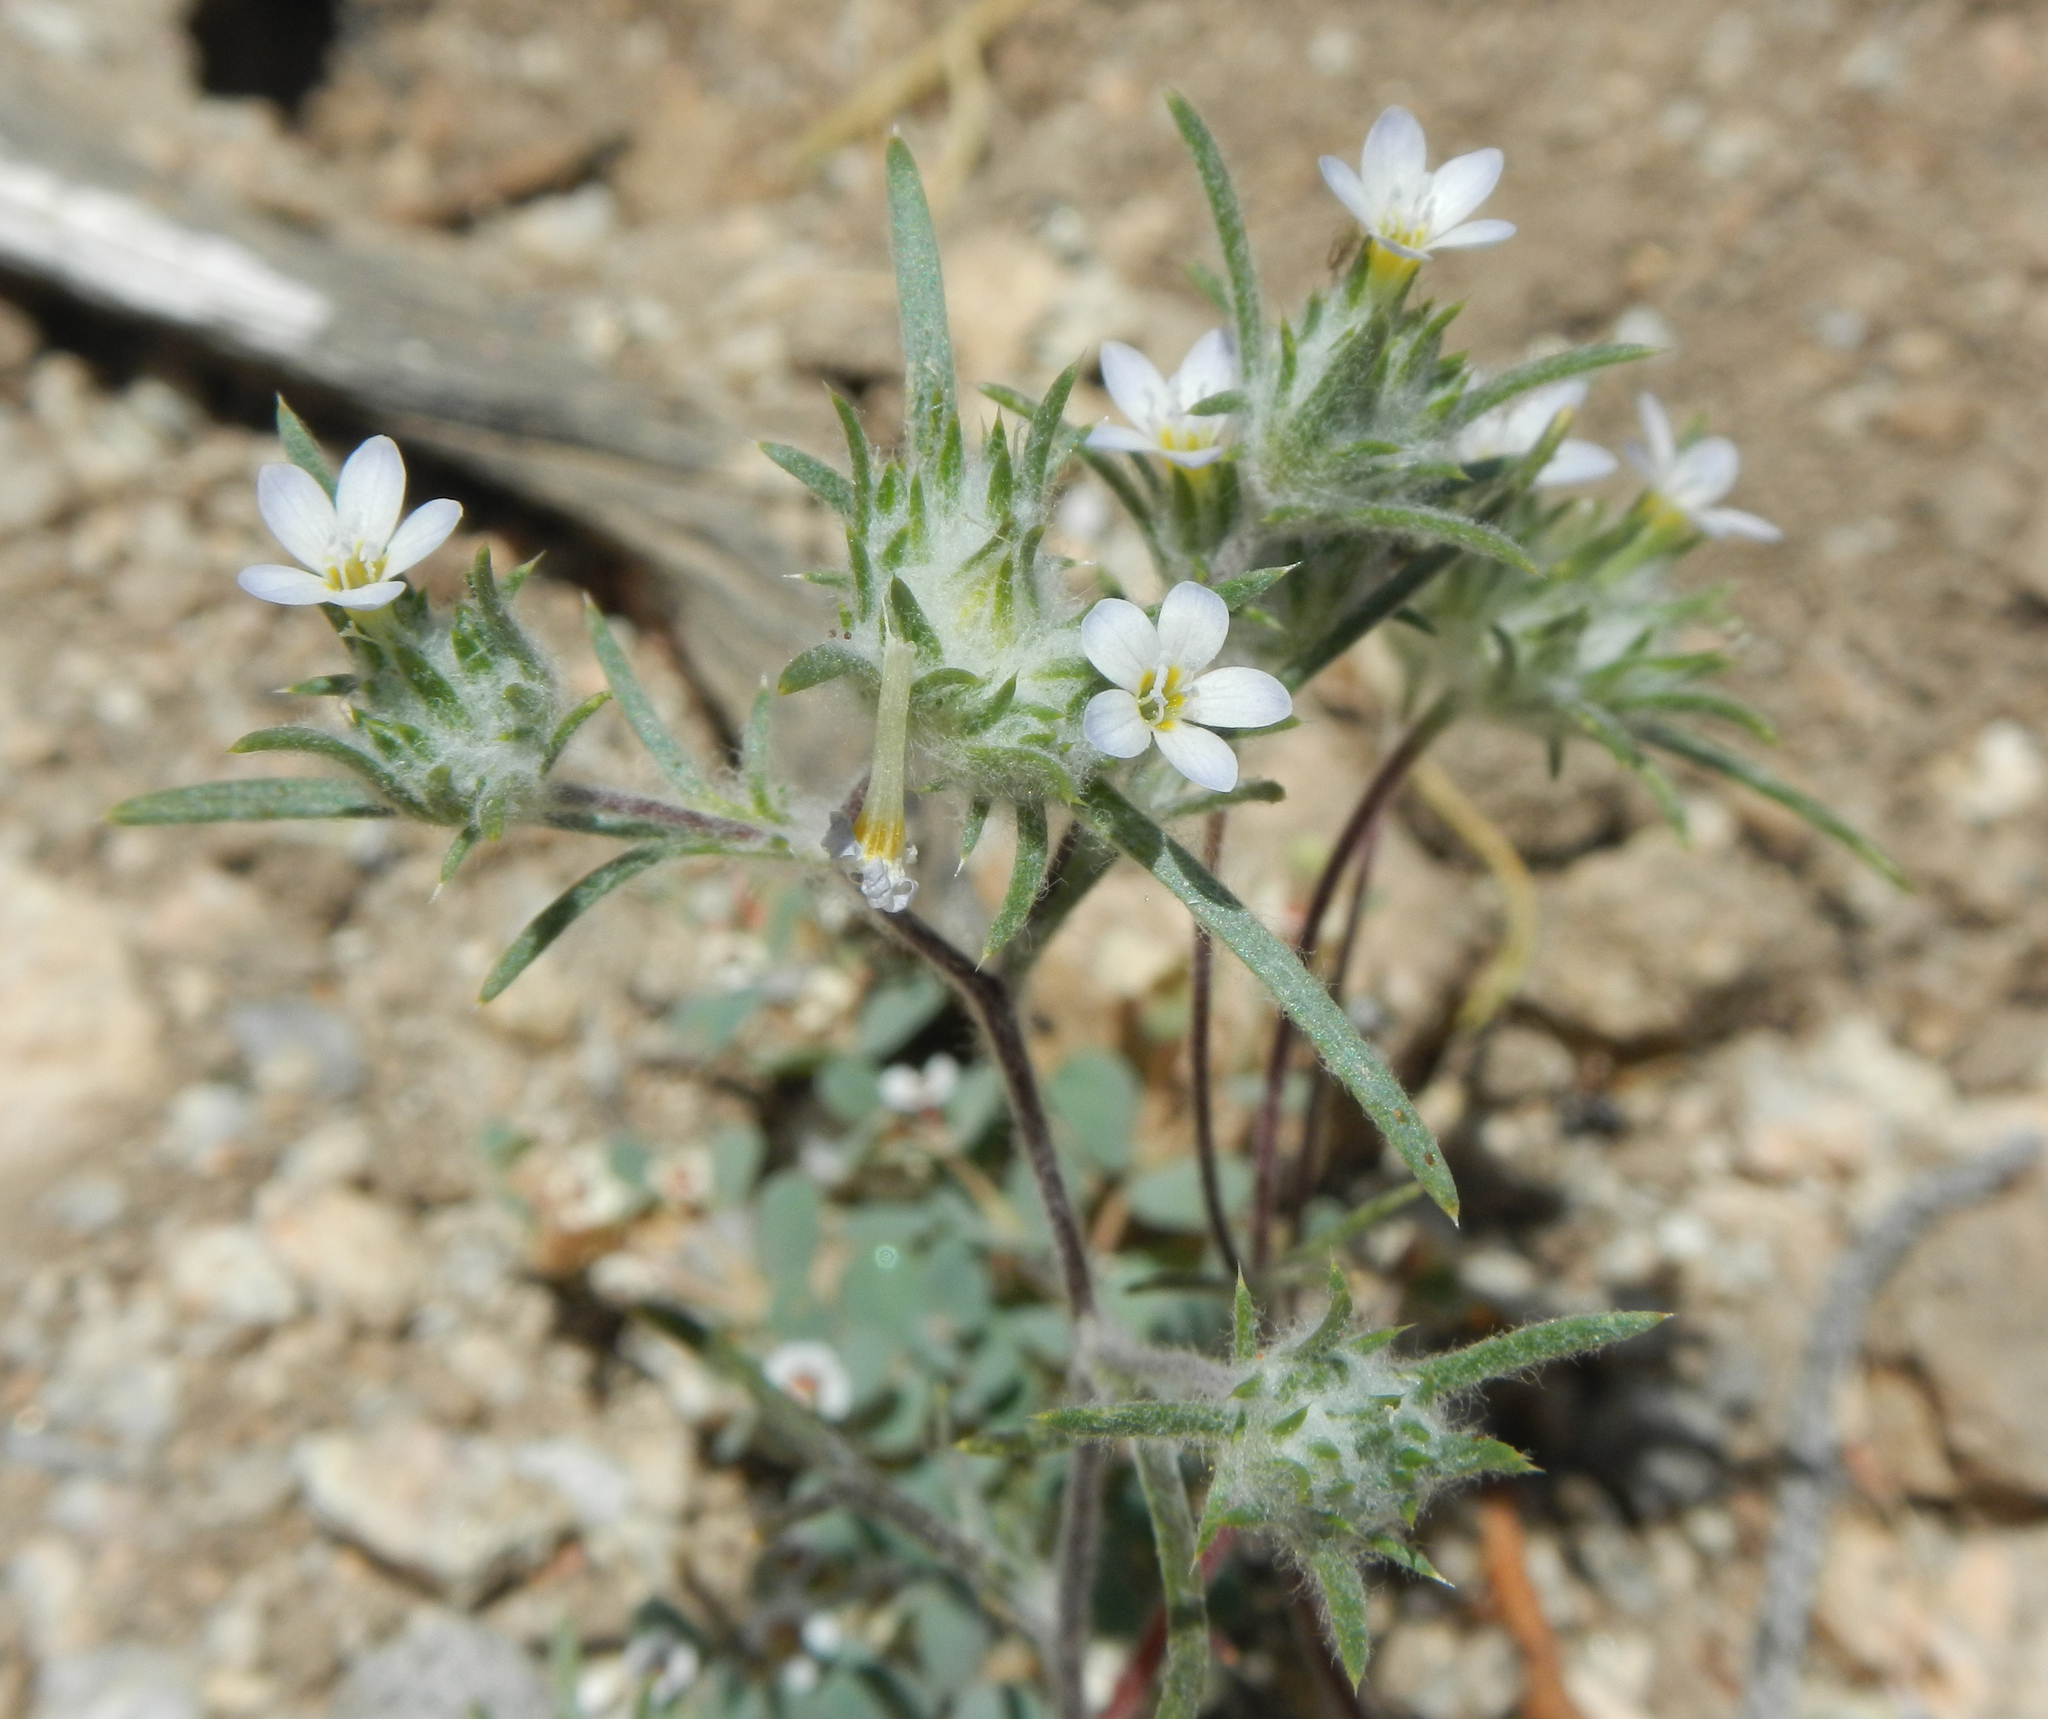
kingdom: Plantae
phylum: Tracheophyta
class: Magnoliopsida
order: Ericales
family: Polemoniaceae
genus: Eriastrum
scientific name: Eriastrum diffusum
